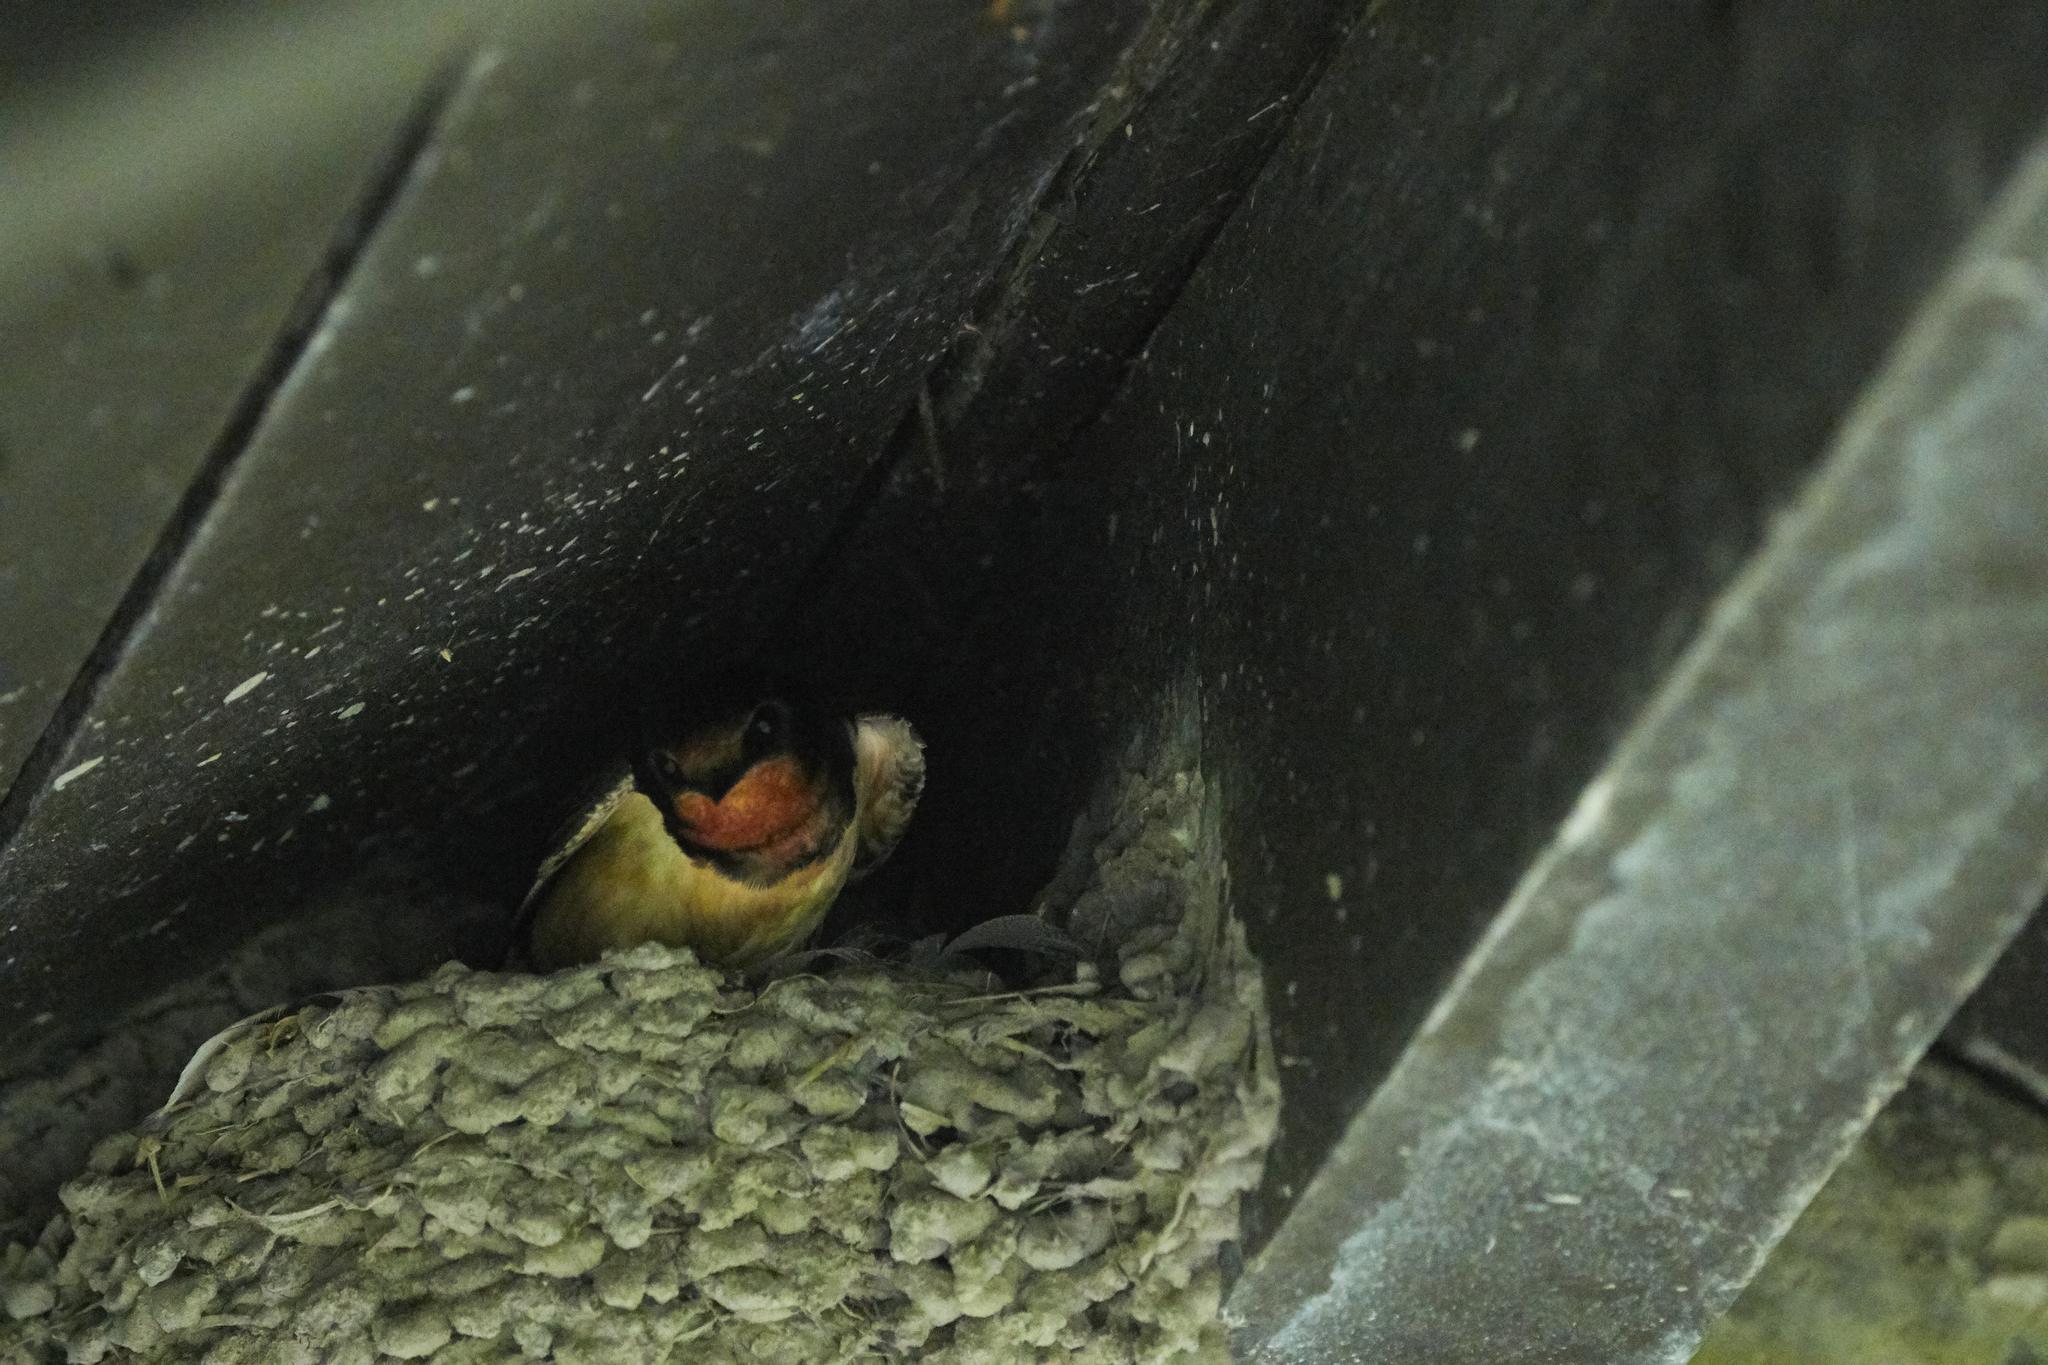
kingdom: Animalia
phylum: Chordata
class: Aves
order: Passeriformes
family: Hirundinidae
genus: Hirundo
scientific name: Hirundo rustica
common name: Barn swallow
